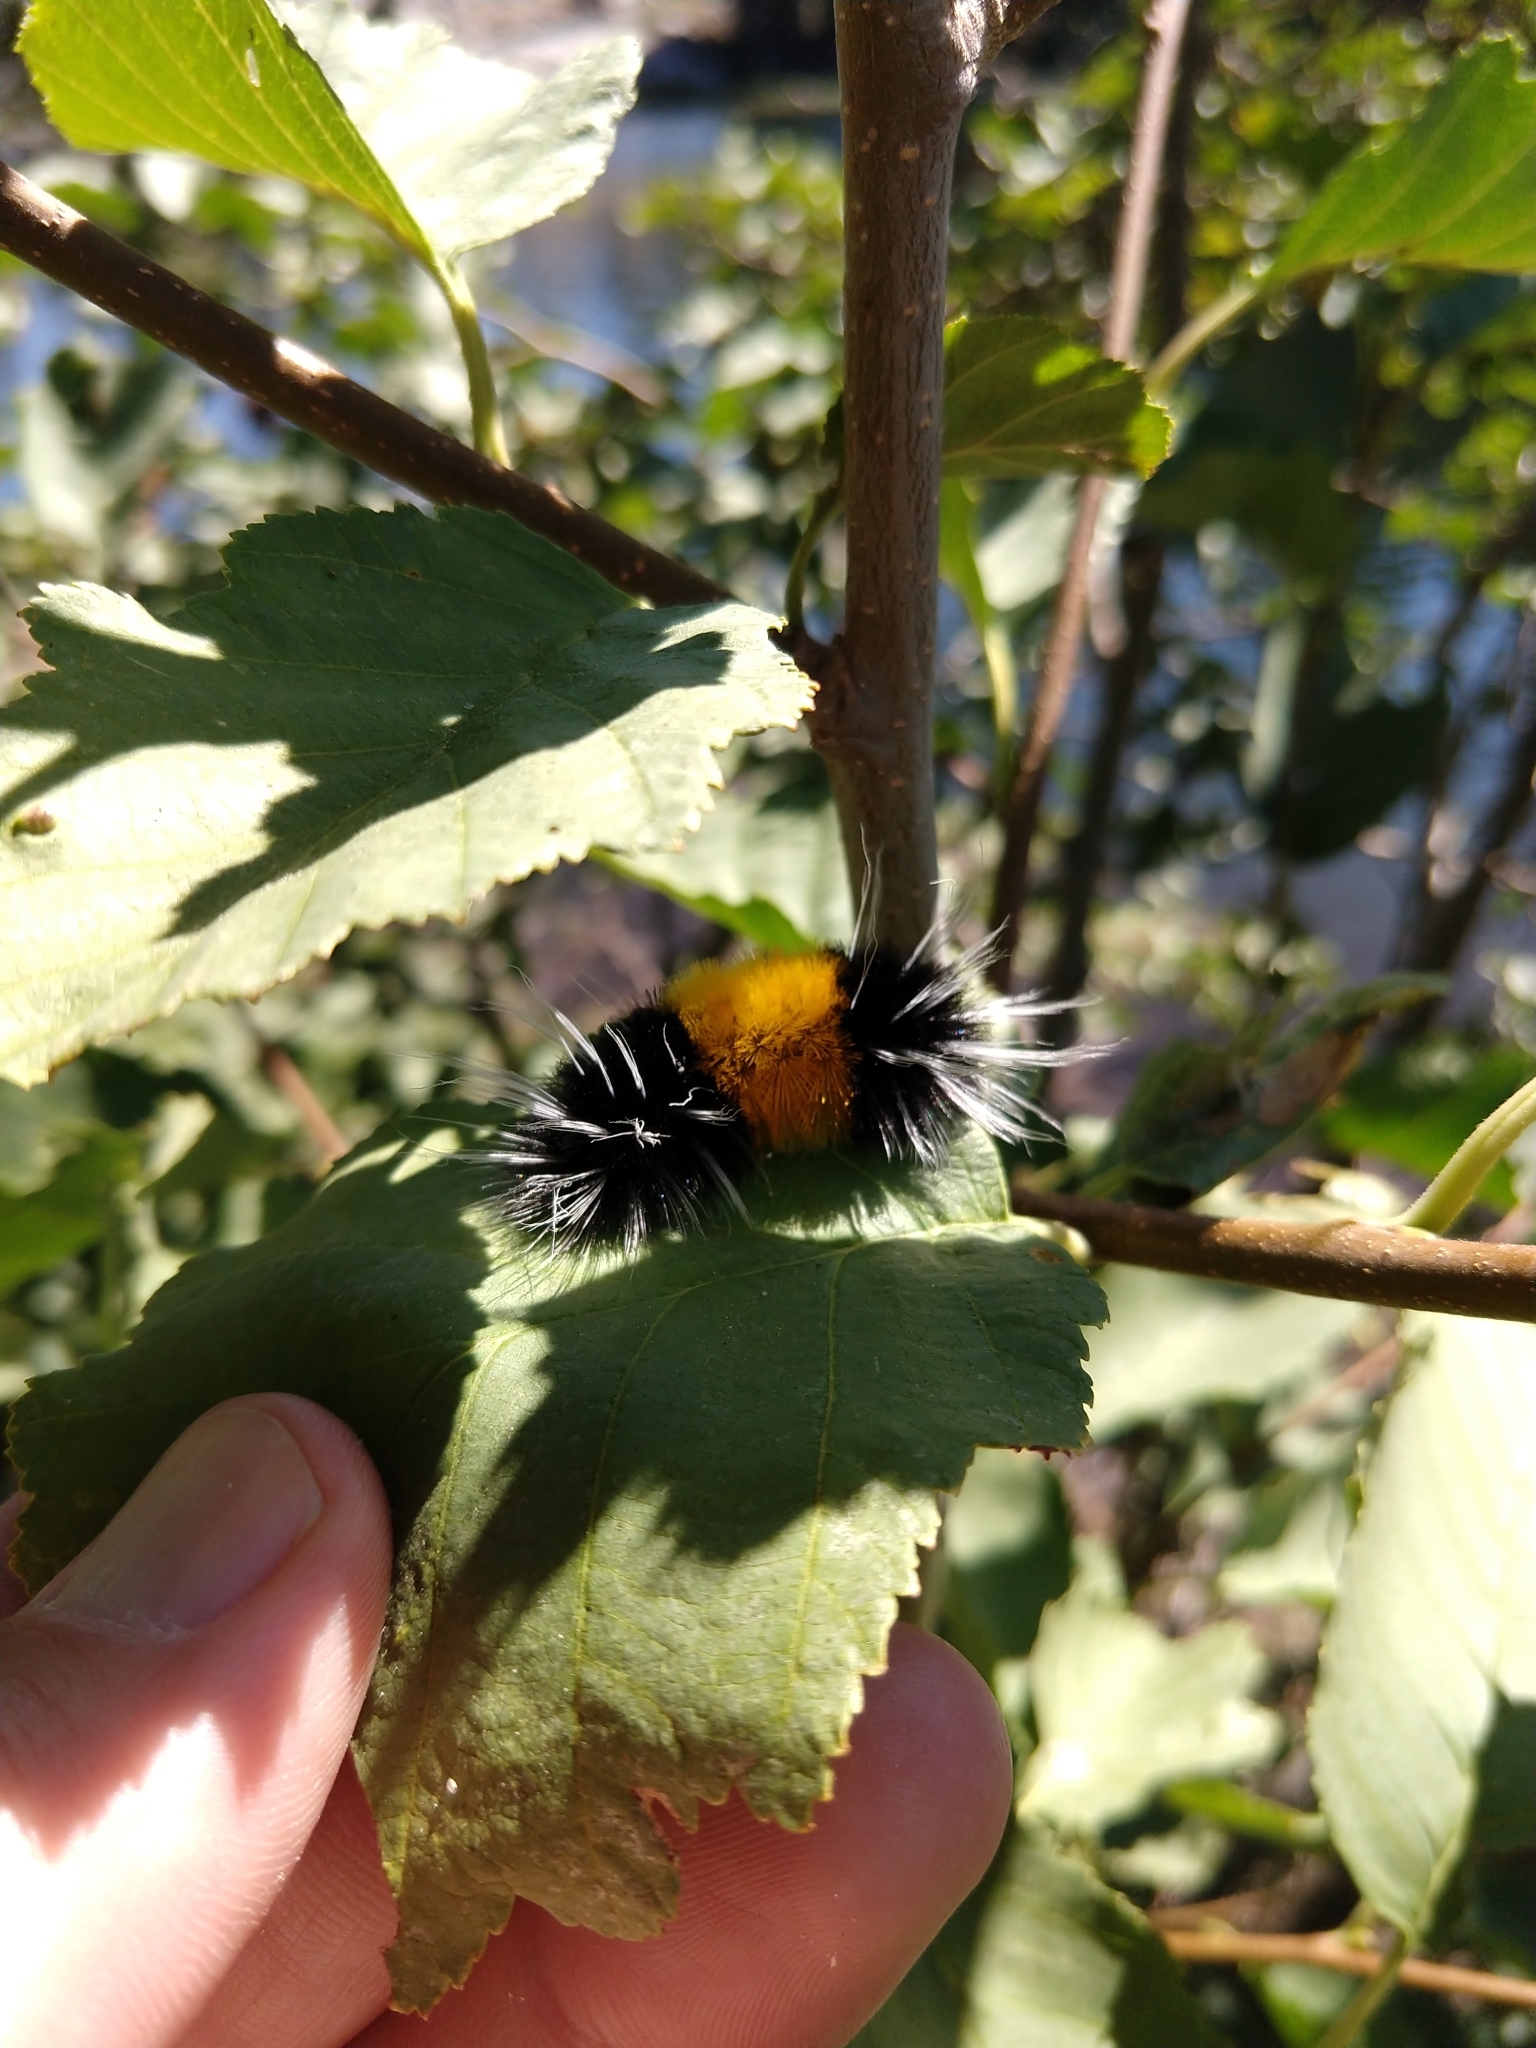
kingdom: Animalia
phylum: Arthropoda
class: Insecta
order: Lepidoptera
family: Erebidae
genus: Lophocampa
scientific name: Lophocampa maculata
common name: Spotted tussock moth
